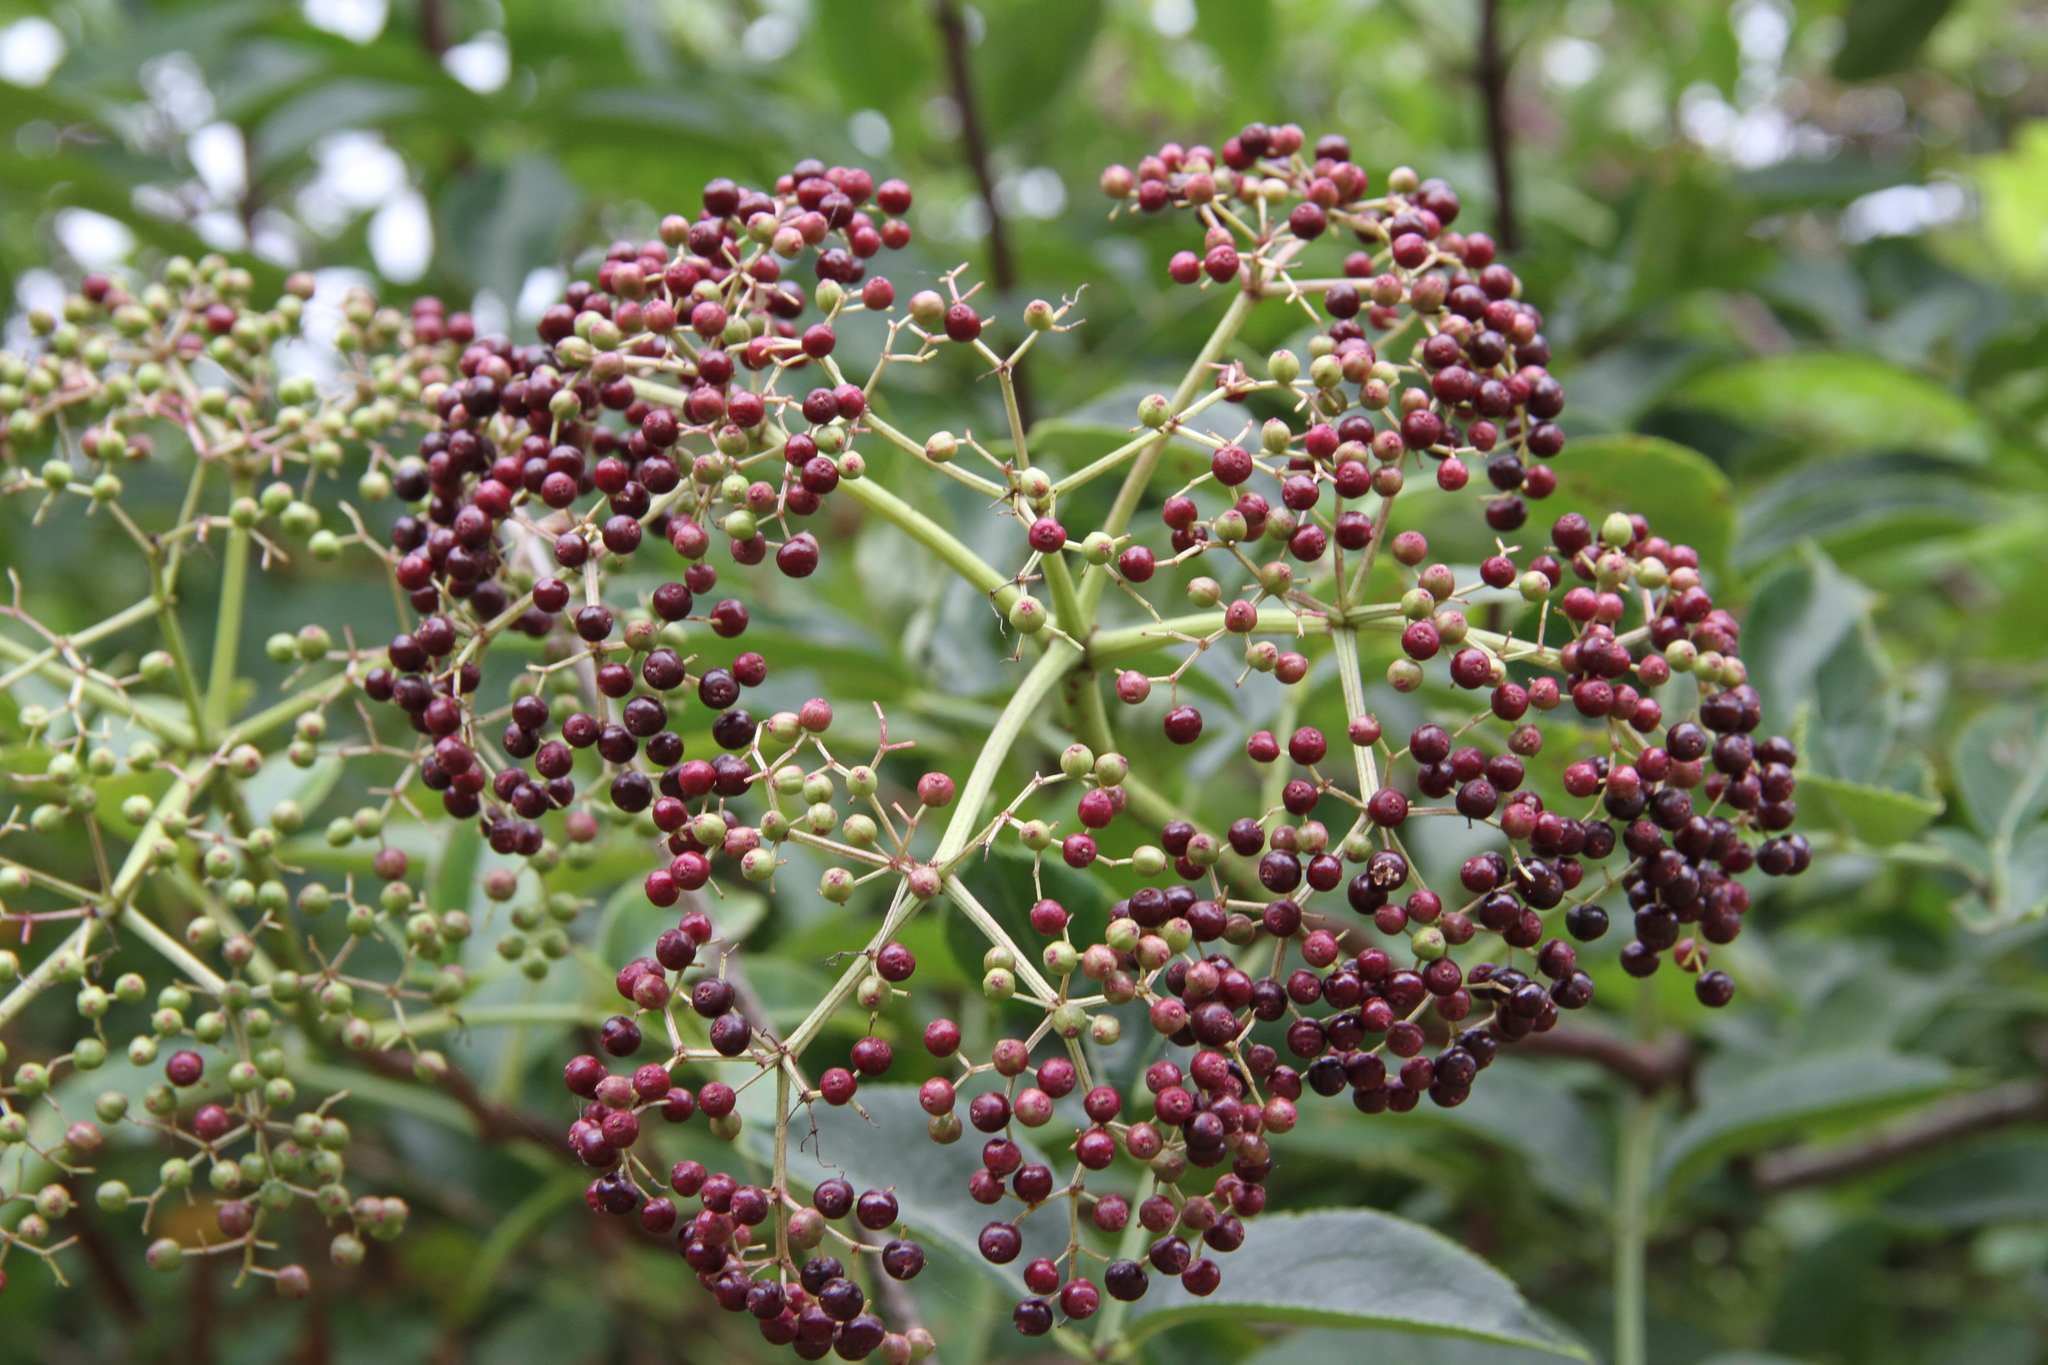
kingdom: Plantae
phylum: Tracheophyta
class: Magnoliopsida
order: Dipsacales
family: Viburnaceae
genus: Sambucus
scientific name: Sambucus canadensis
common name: American elder
